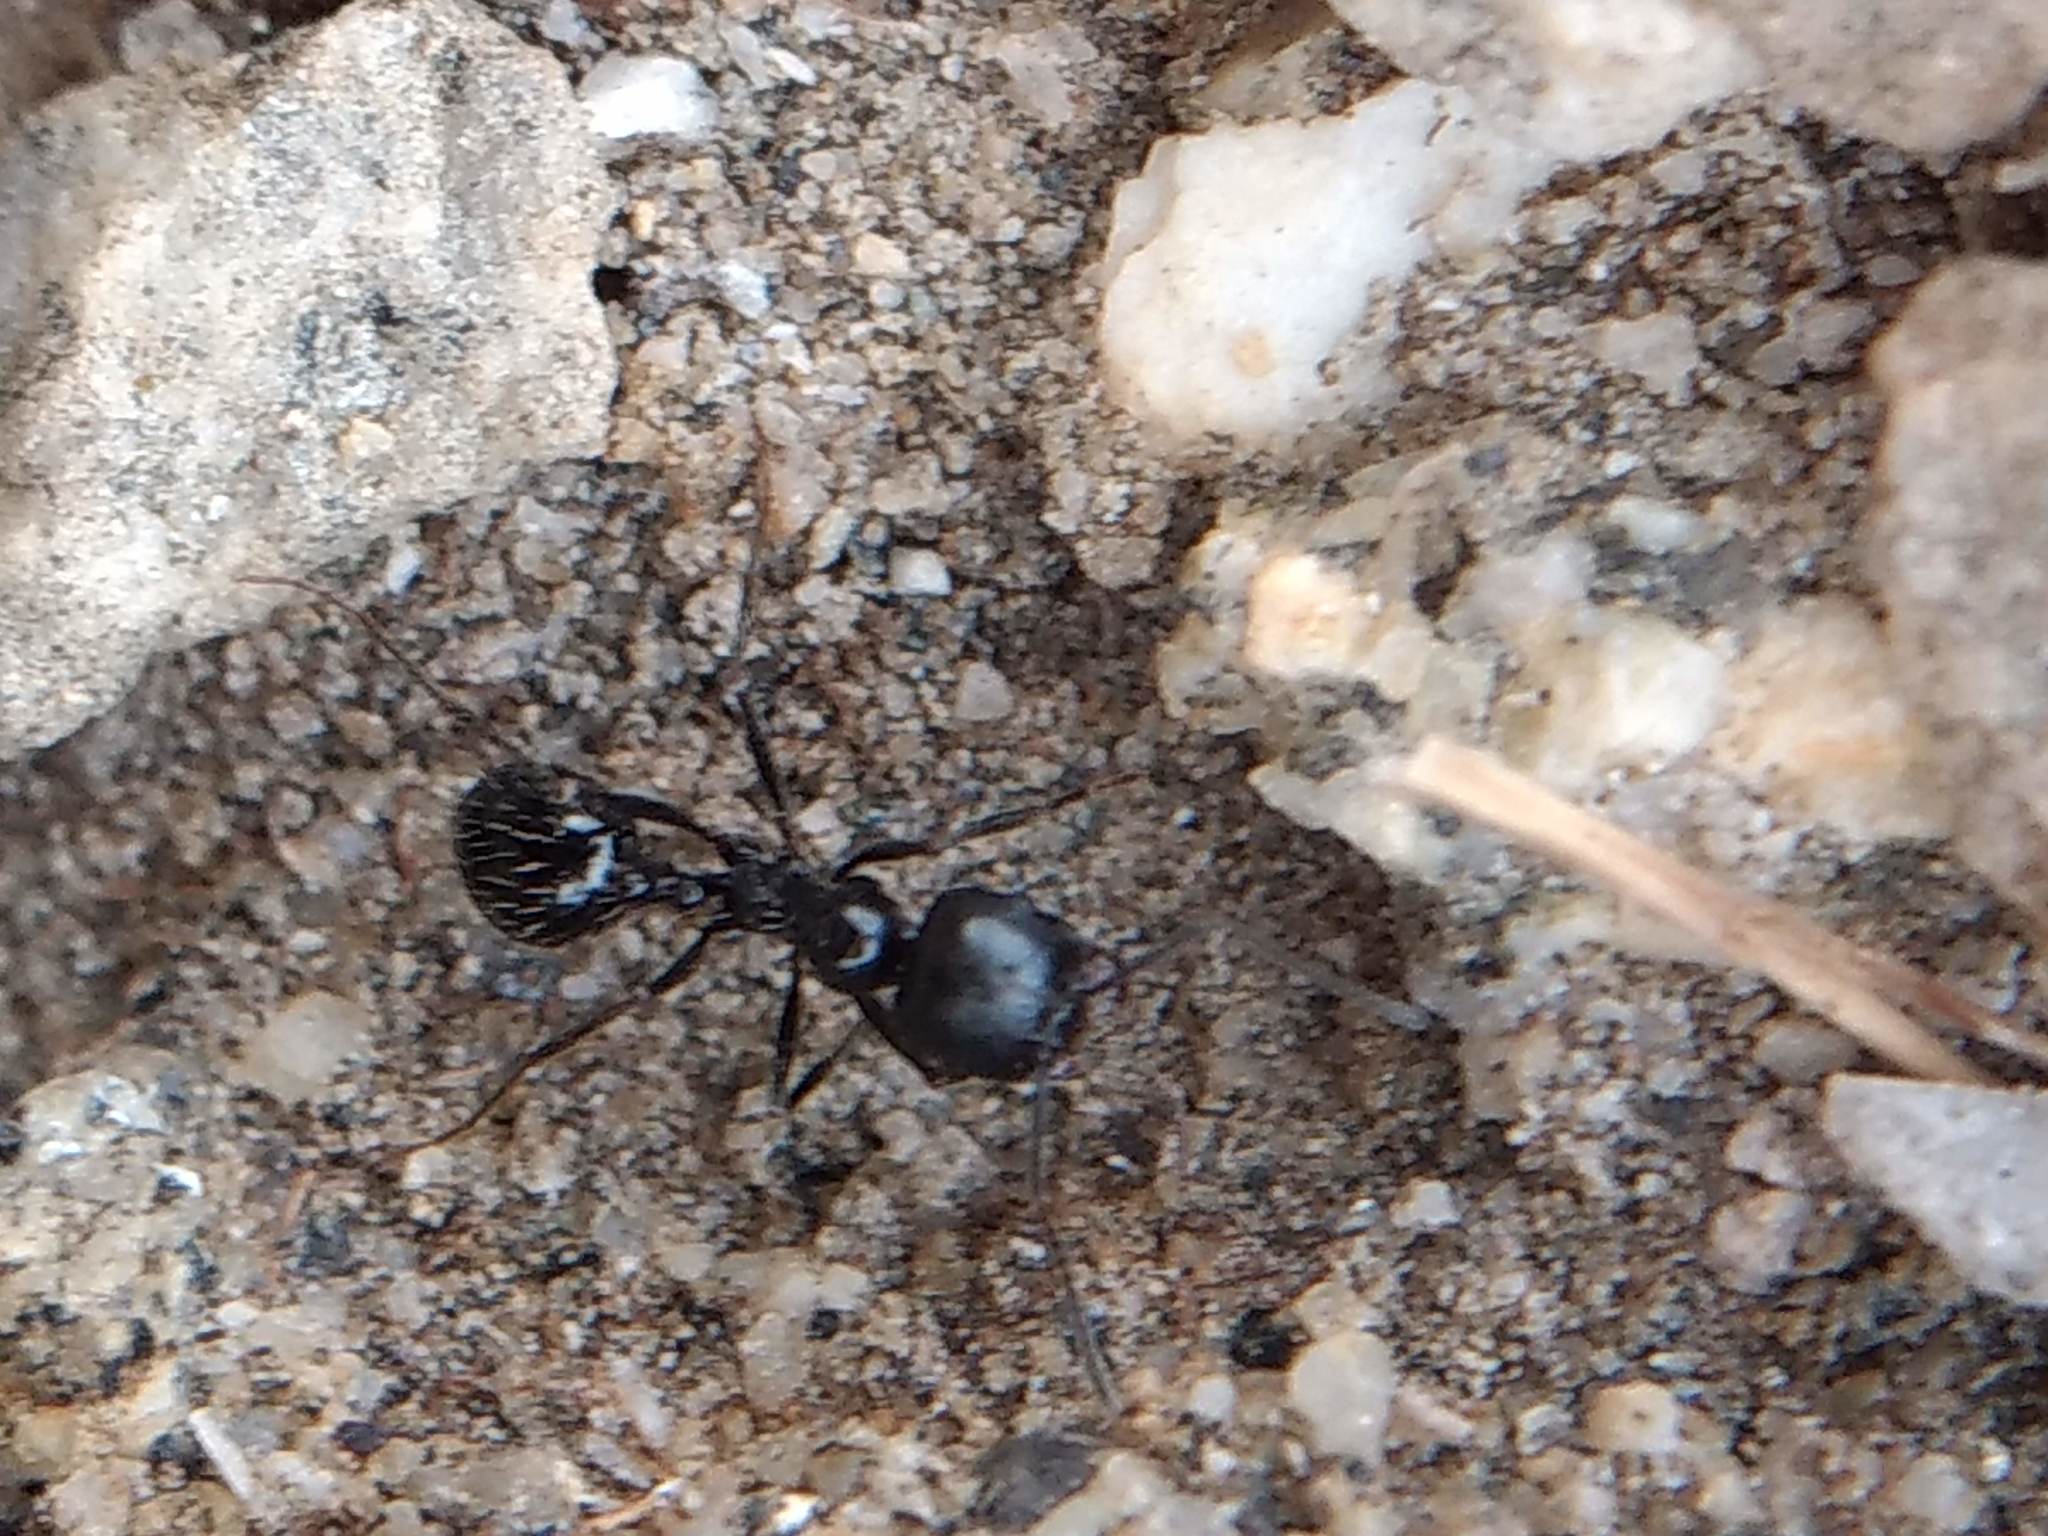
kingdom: Animalia
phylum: Arthropoda
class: Insecta
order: Hymenoptera
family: Formicidae
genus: Messor
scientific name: Messor pergandei
